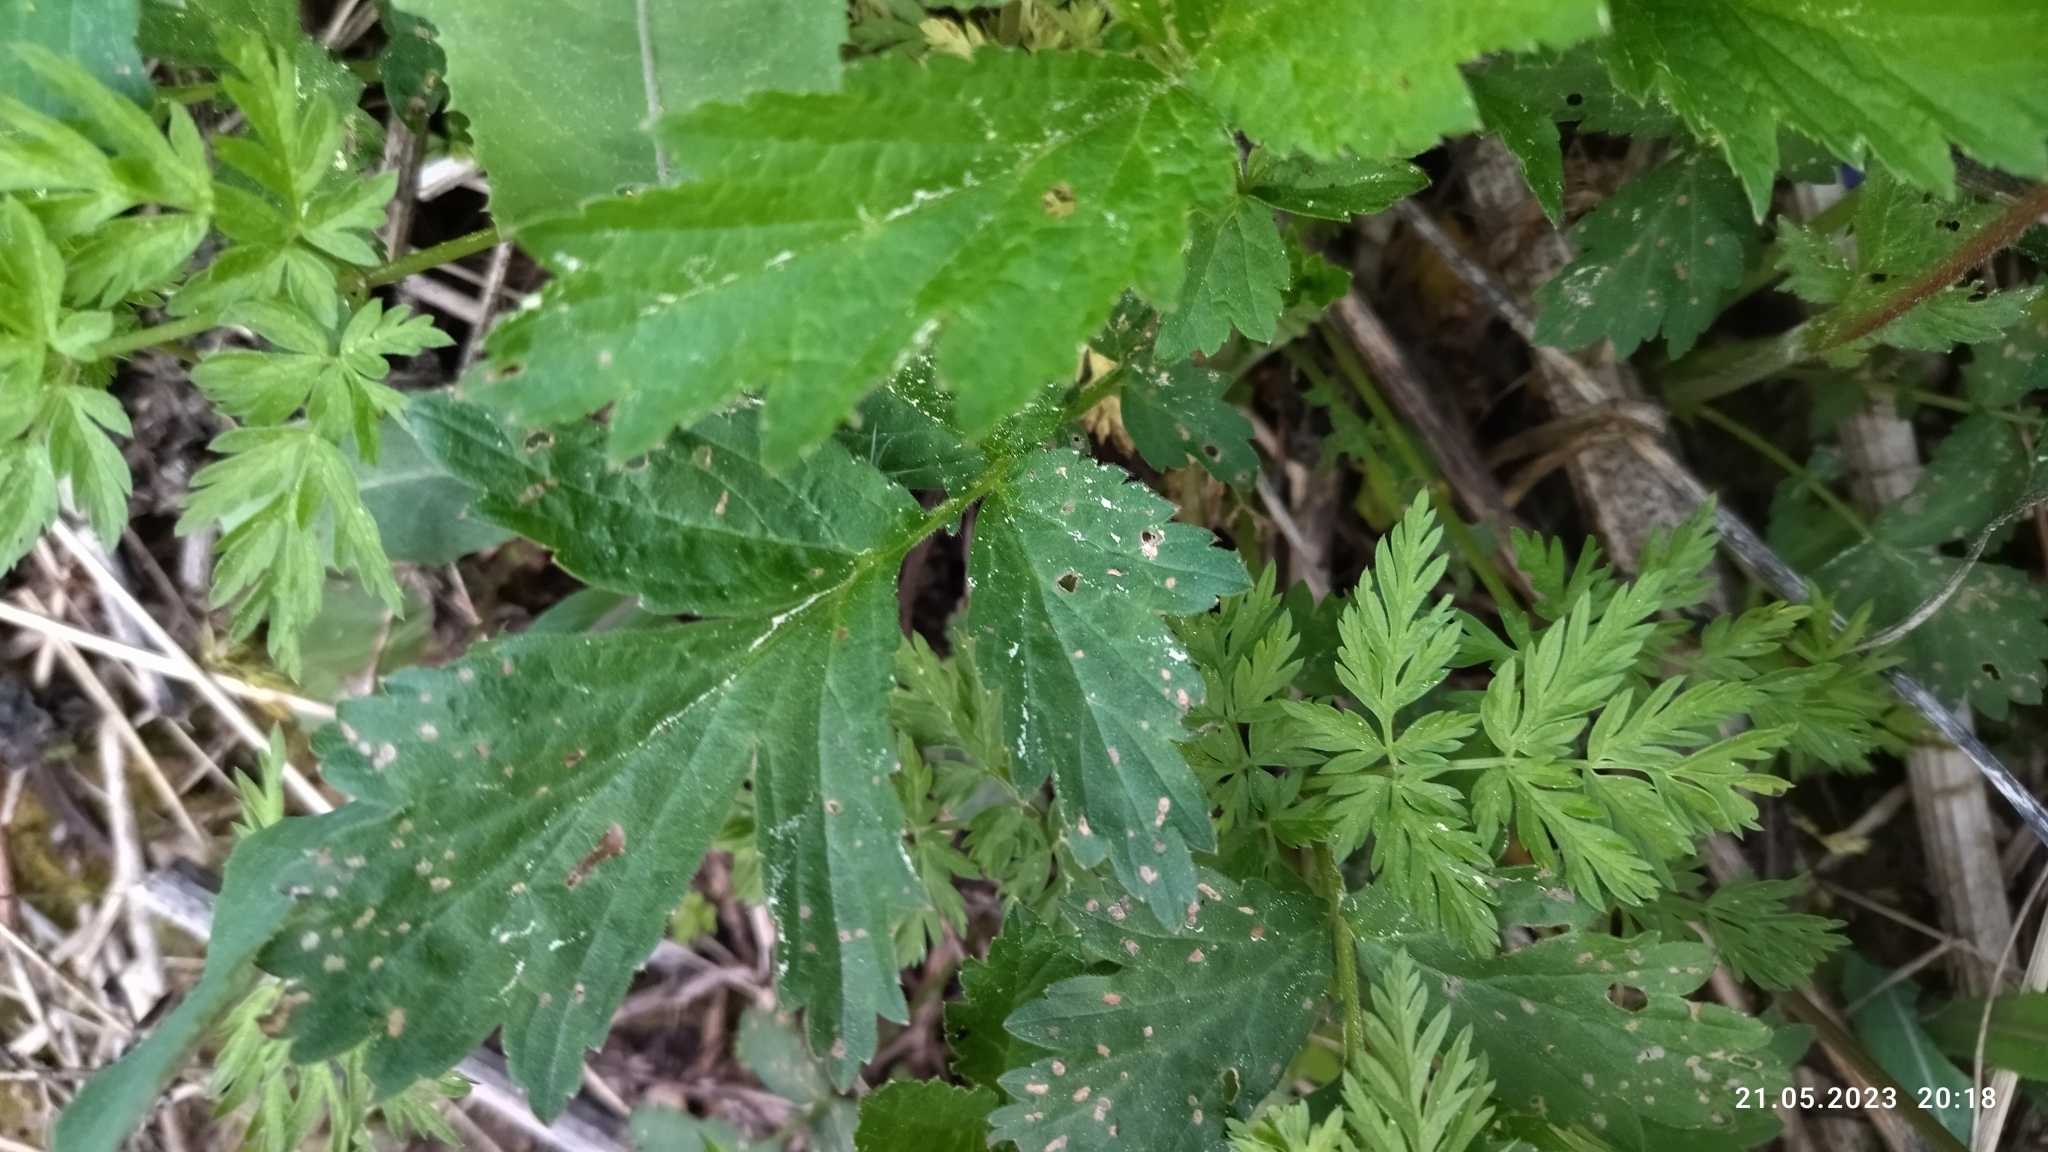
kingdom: Plantae
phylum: Tracheophyta
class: Magnoliopsida
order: Rosales
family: Rosaceae
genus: Geum
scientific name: Geum rivale
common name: Water avens
